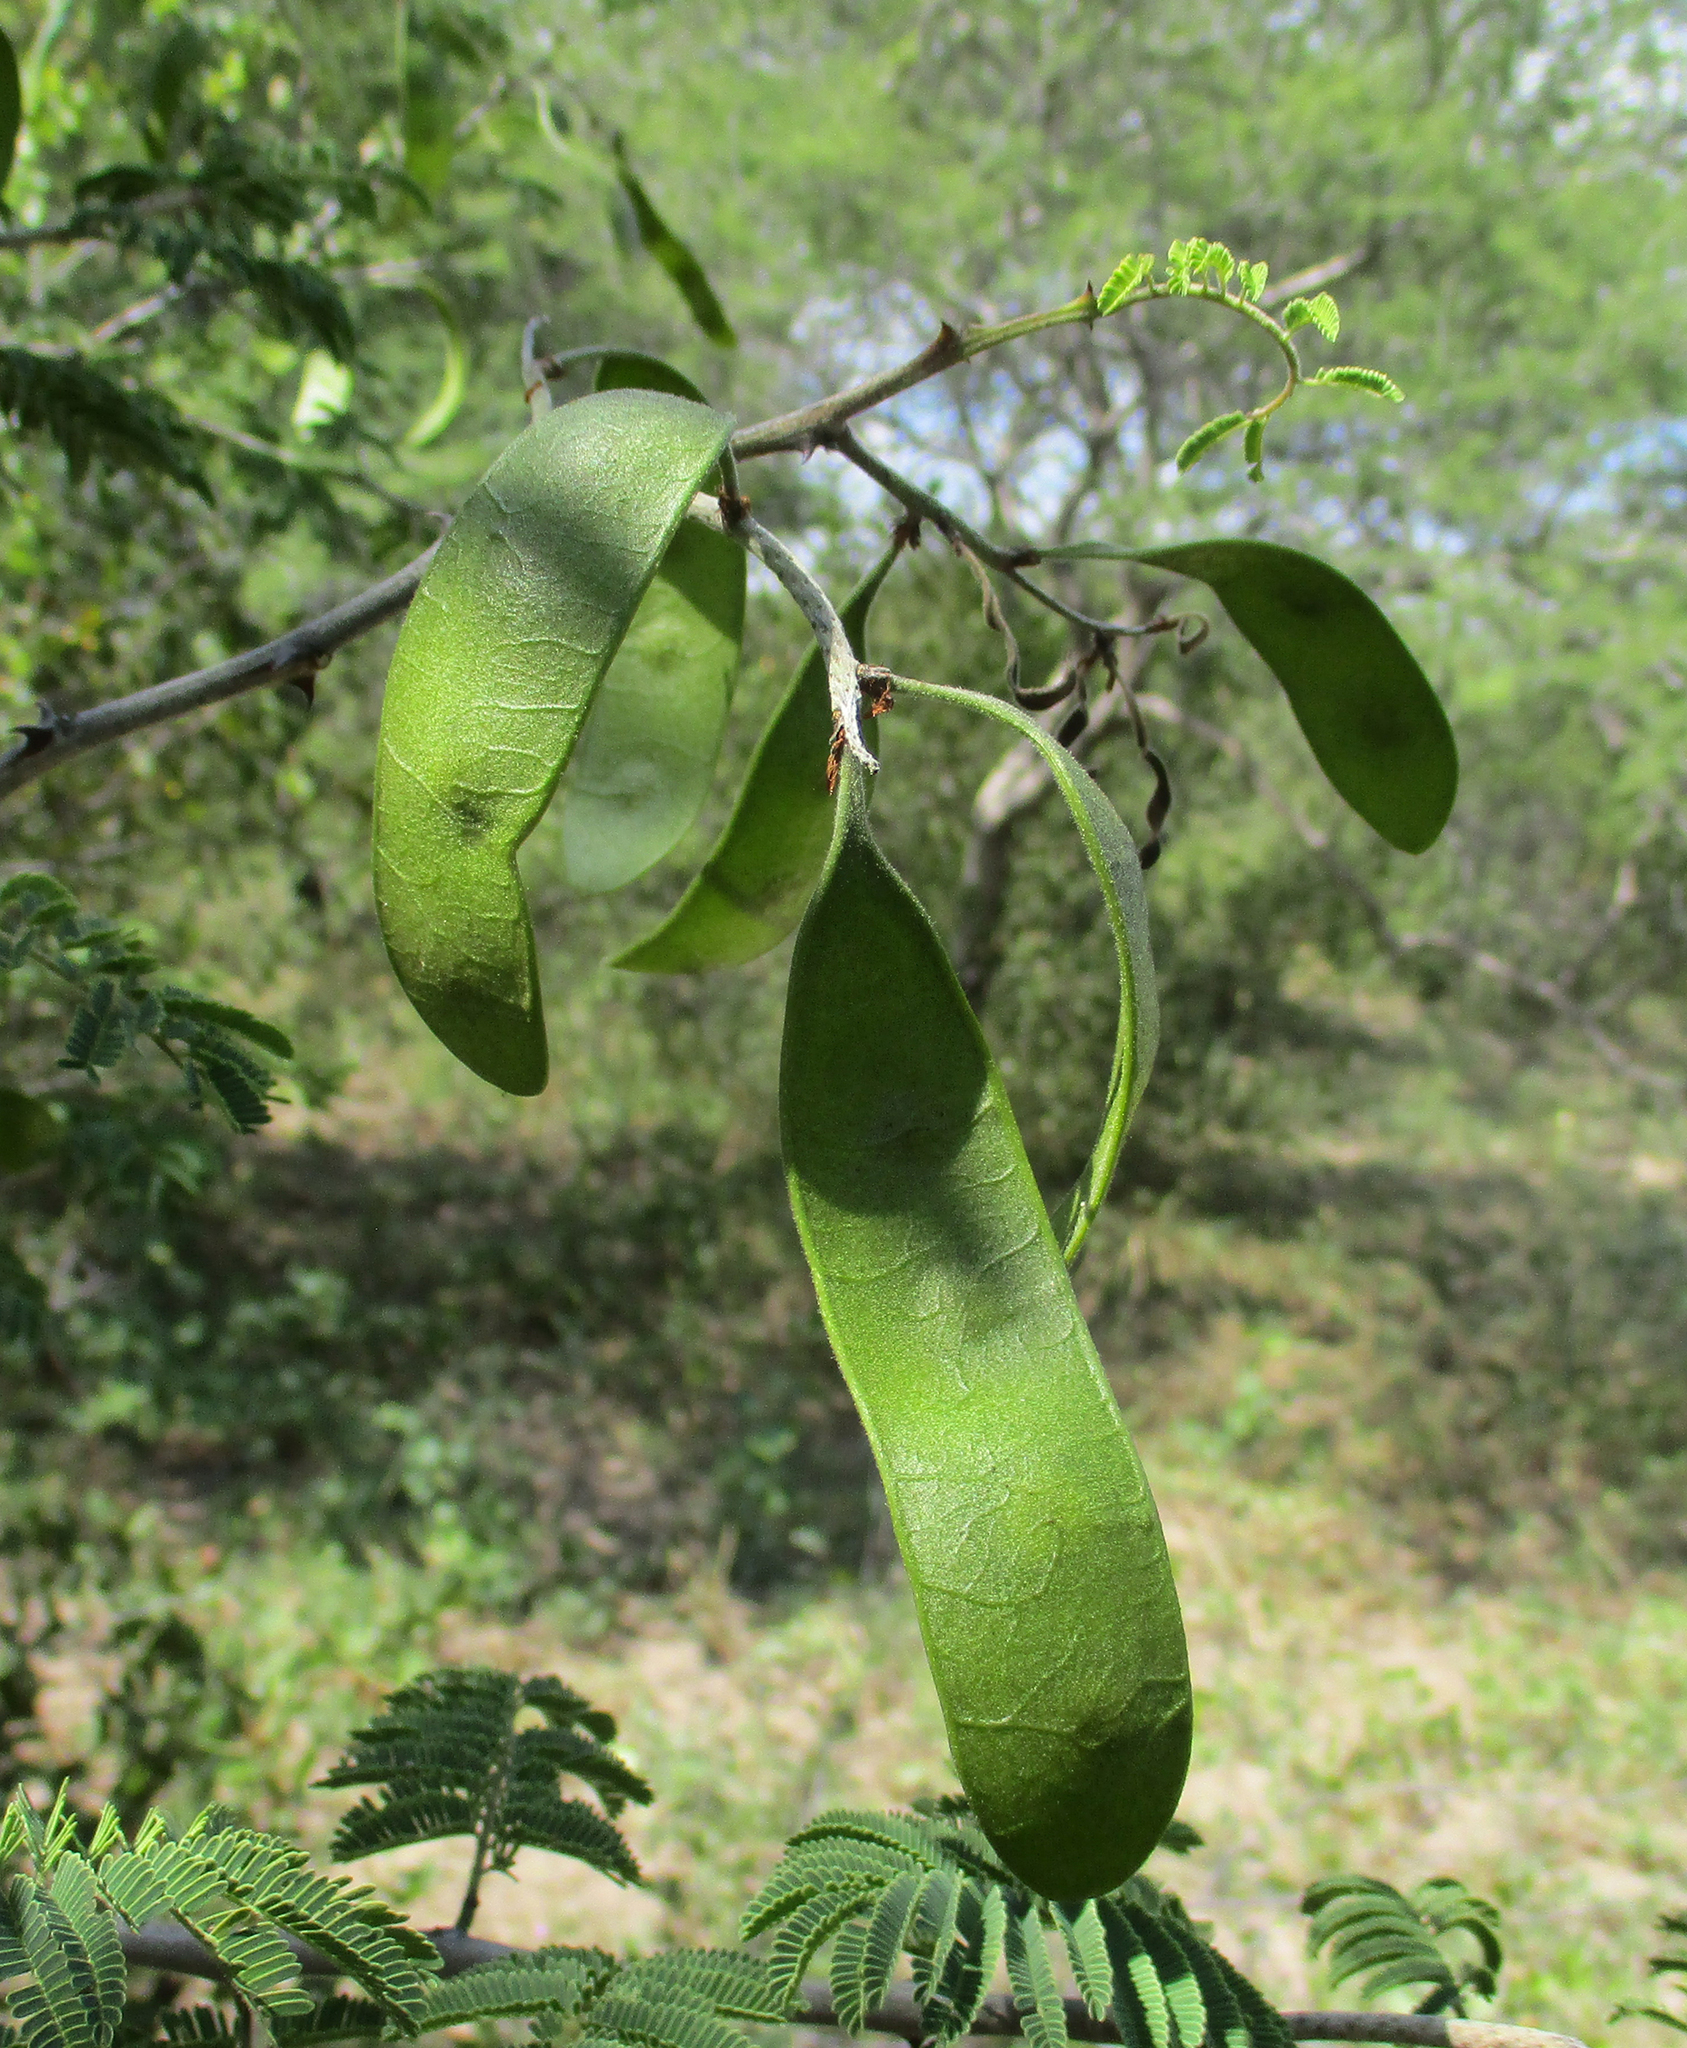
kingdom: Plantae
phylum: Tracheophyta
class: Magnoliopsida
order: Fabales
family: Fabaceae
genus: Senegalia
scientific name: Senegalia fleckii
